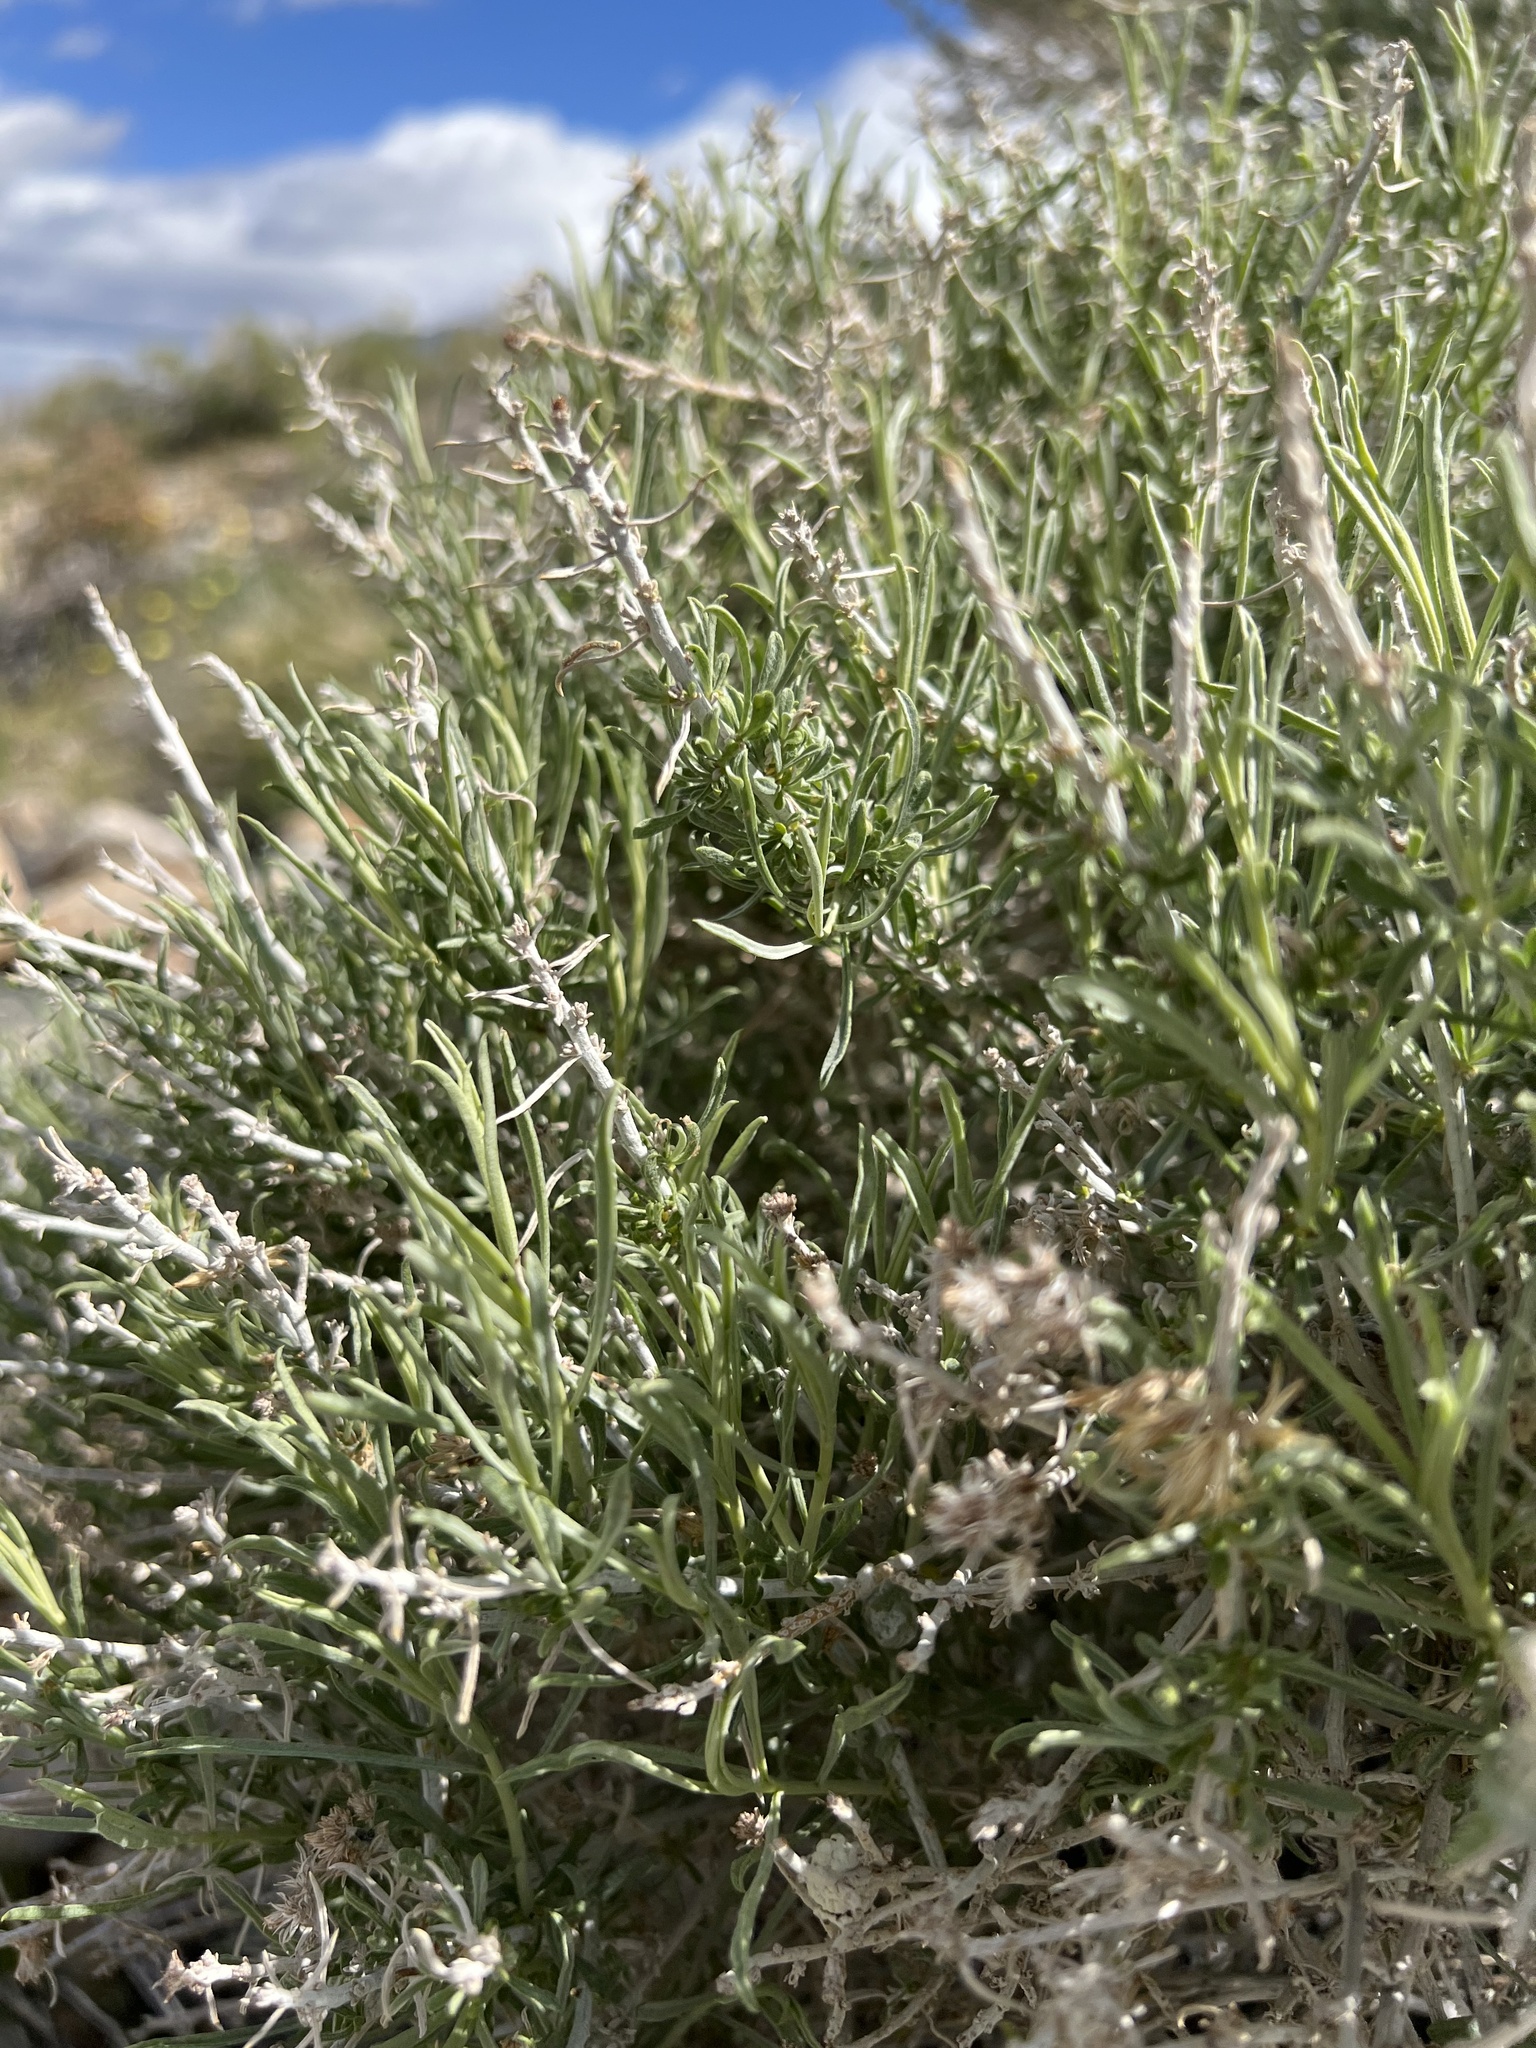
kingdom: Plantae
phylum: Tracheophyta
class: Magnoliopsida
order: Asterales
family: Asteraceae
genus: Ericameria
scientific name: Ericameria nauseosa
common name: Rubber rabbitbrush
